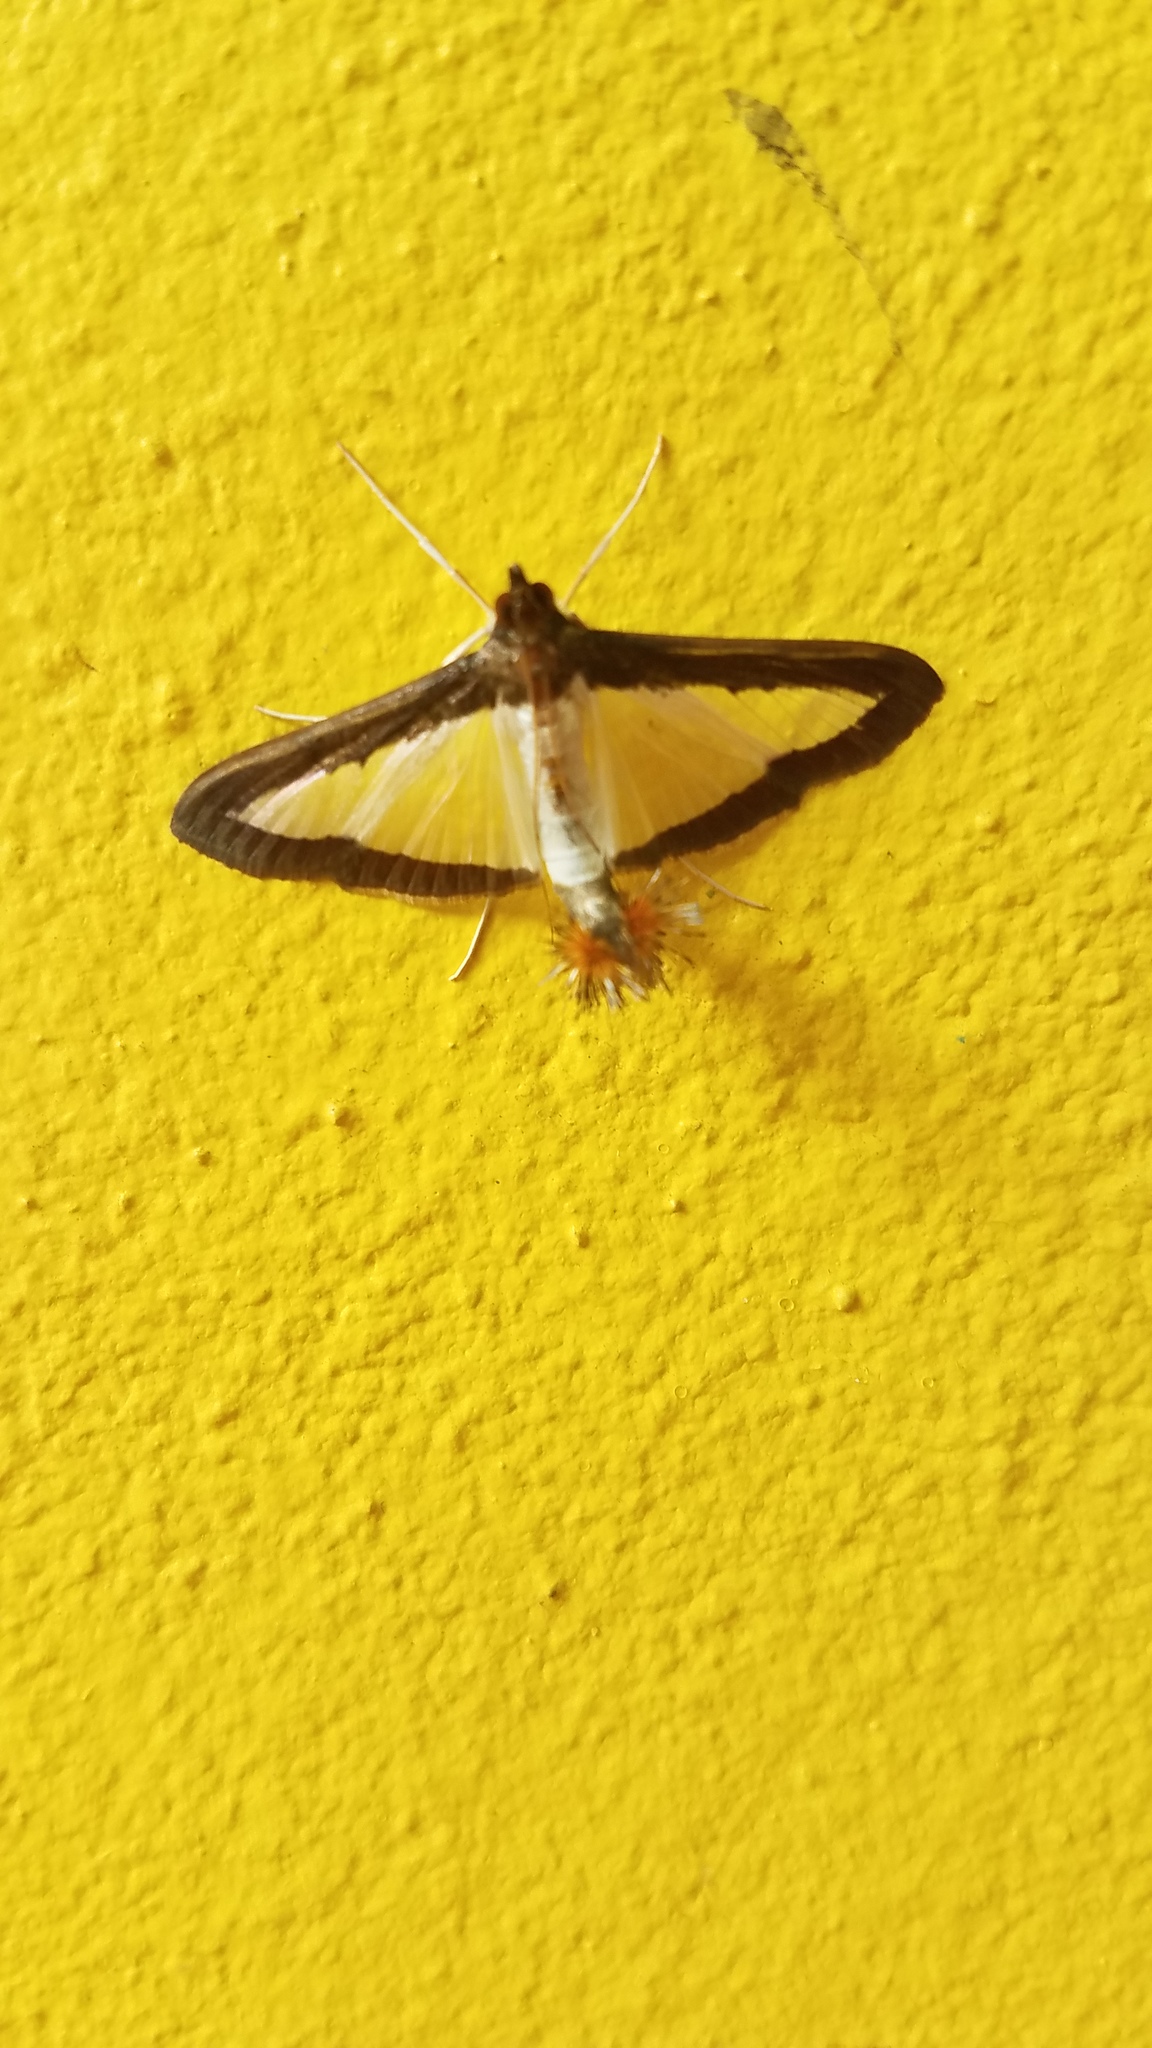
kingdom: Animalia
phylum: Arthropoda
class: Insecta
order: Lepidoptera
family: Crambidae
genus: Diaphania
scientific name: Diaphania hyalinata
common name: Melonworm
